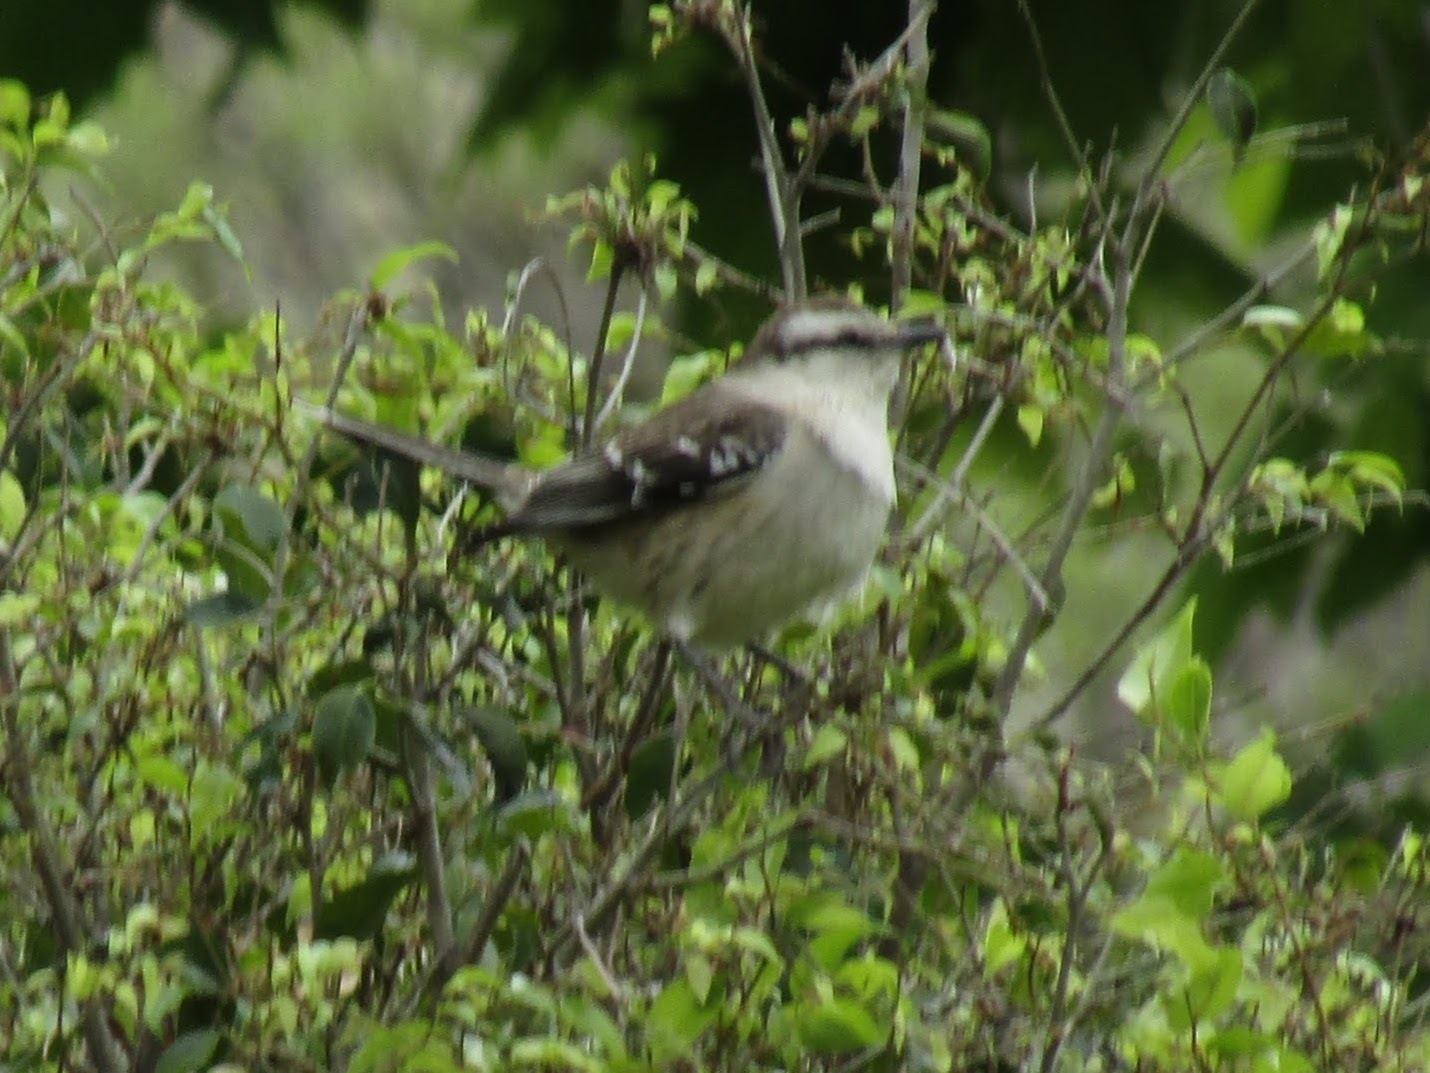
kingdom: Animalia
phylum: Chordata
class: Aves
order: Passeriformes
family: Mimidae
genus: Mimus
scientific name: Mimus saturninus
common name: Chalk-browed mockingbird
